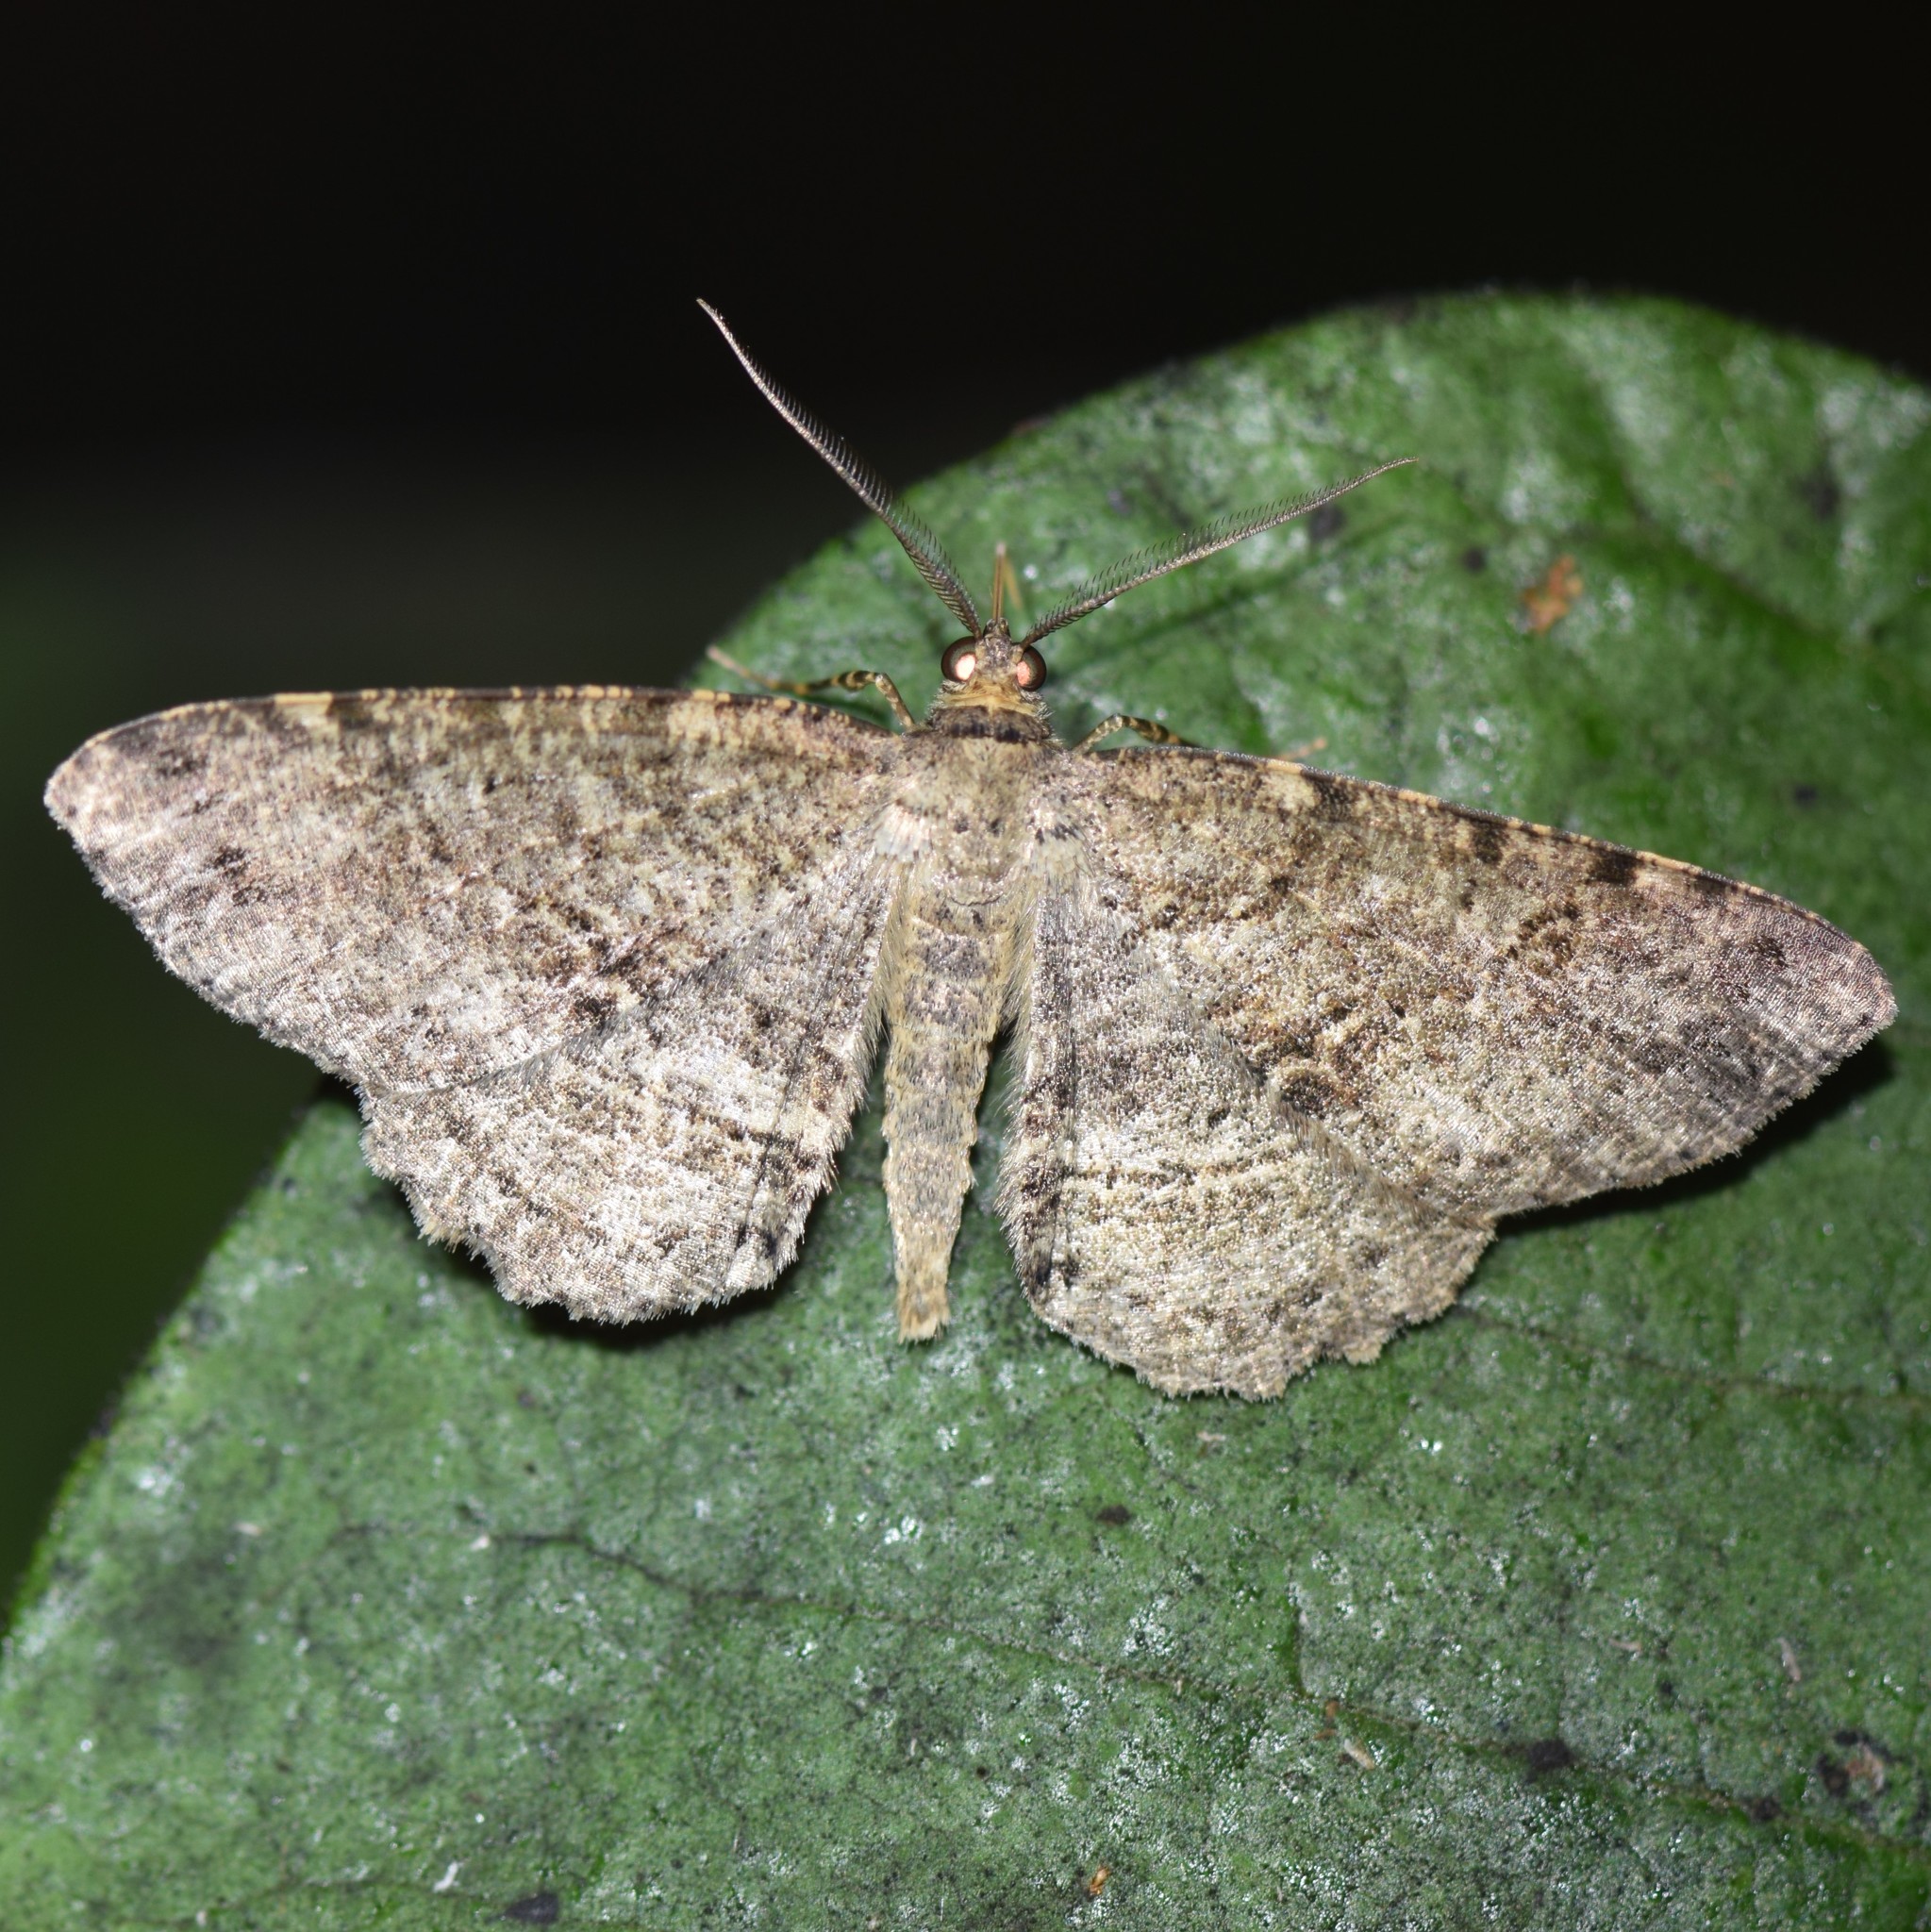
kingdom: Animalia
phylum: Arthropoda
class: Insecta
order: Lepidoptera
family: Geometridae
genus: Melanolophia
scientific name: Melanolophia canadaria
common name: Canadian melanolophia
